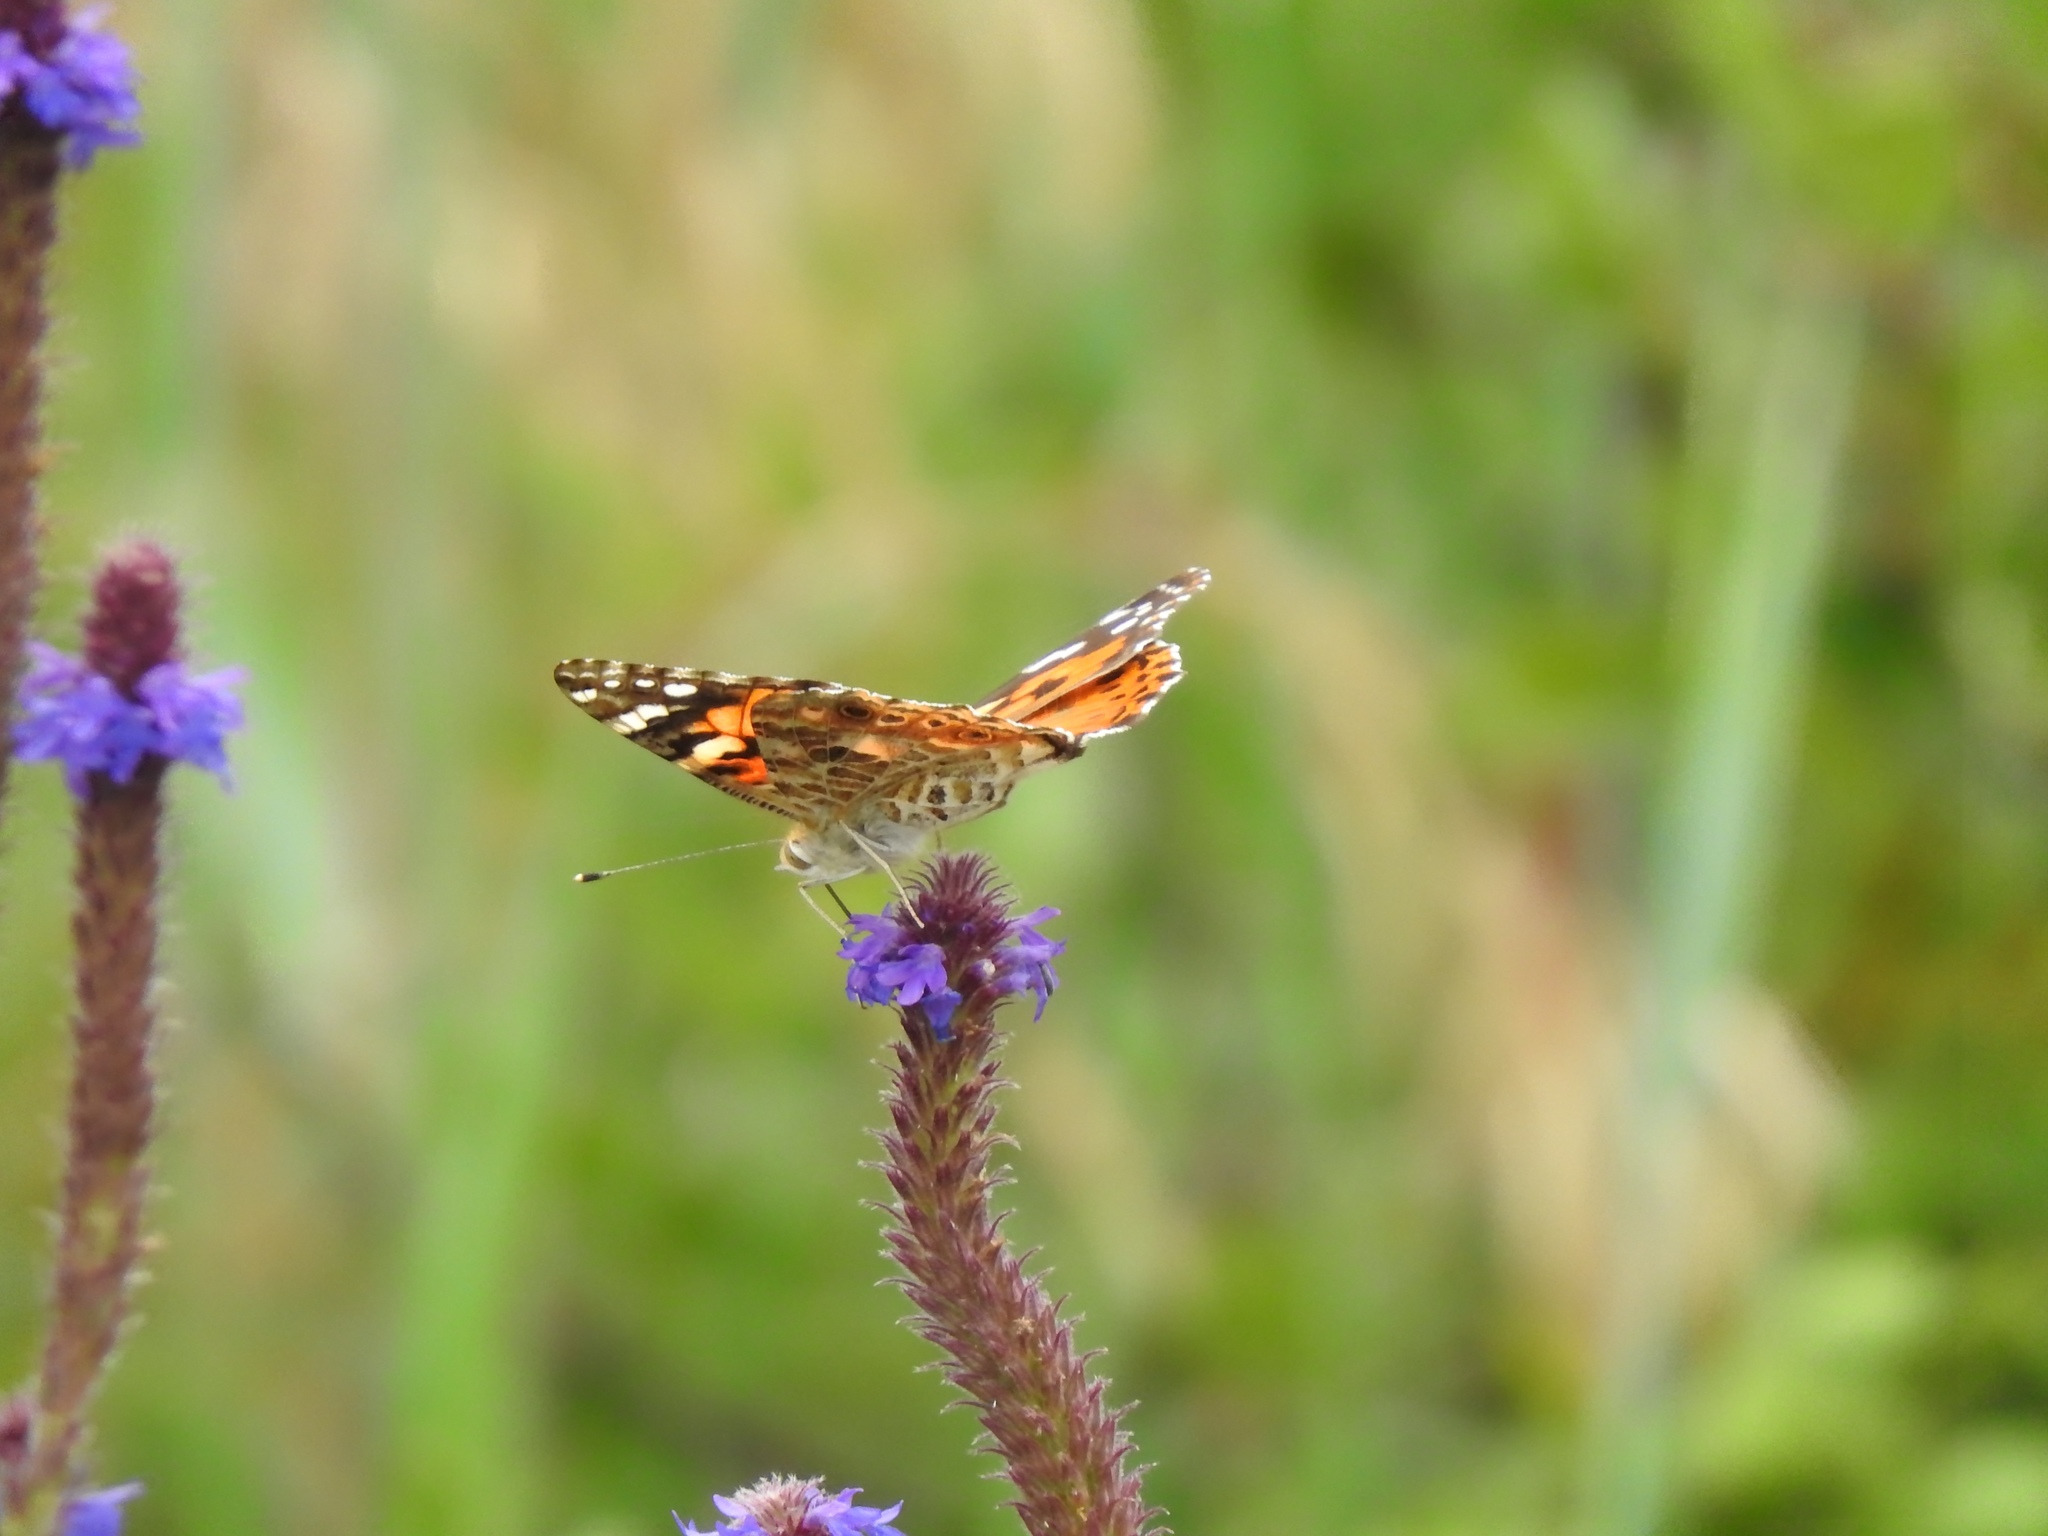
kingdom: Animalia
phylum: Arthropoda
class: Insecta
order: Lepidoptera
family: Nymphalidae
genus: Vanessa
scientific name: Vanessa cardui
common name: Painted lady
